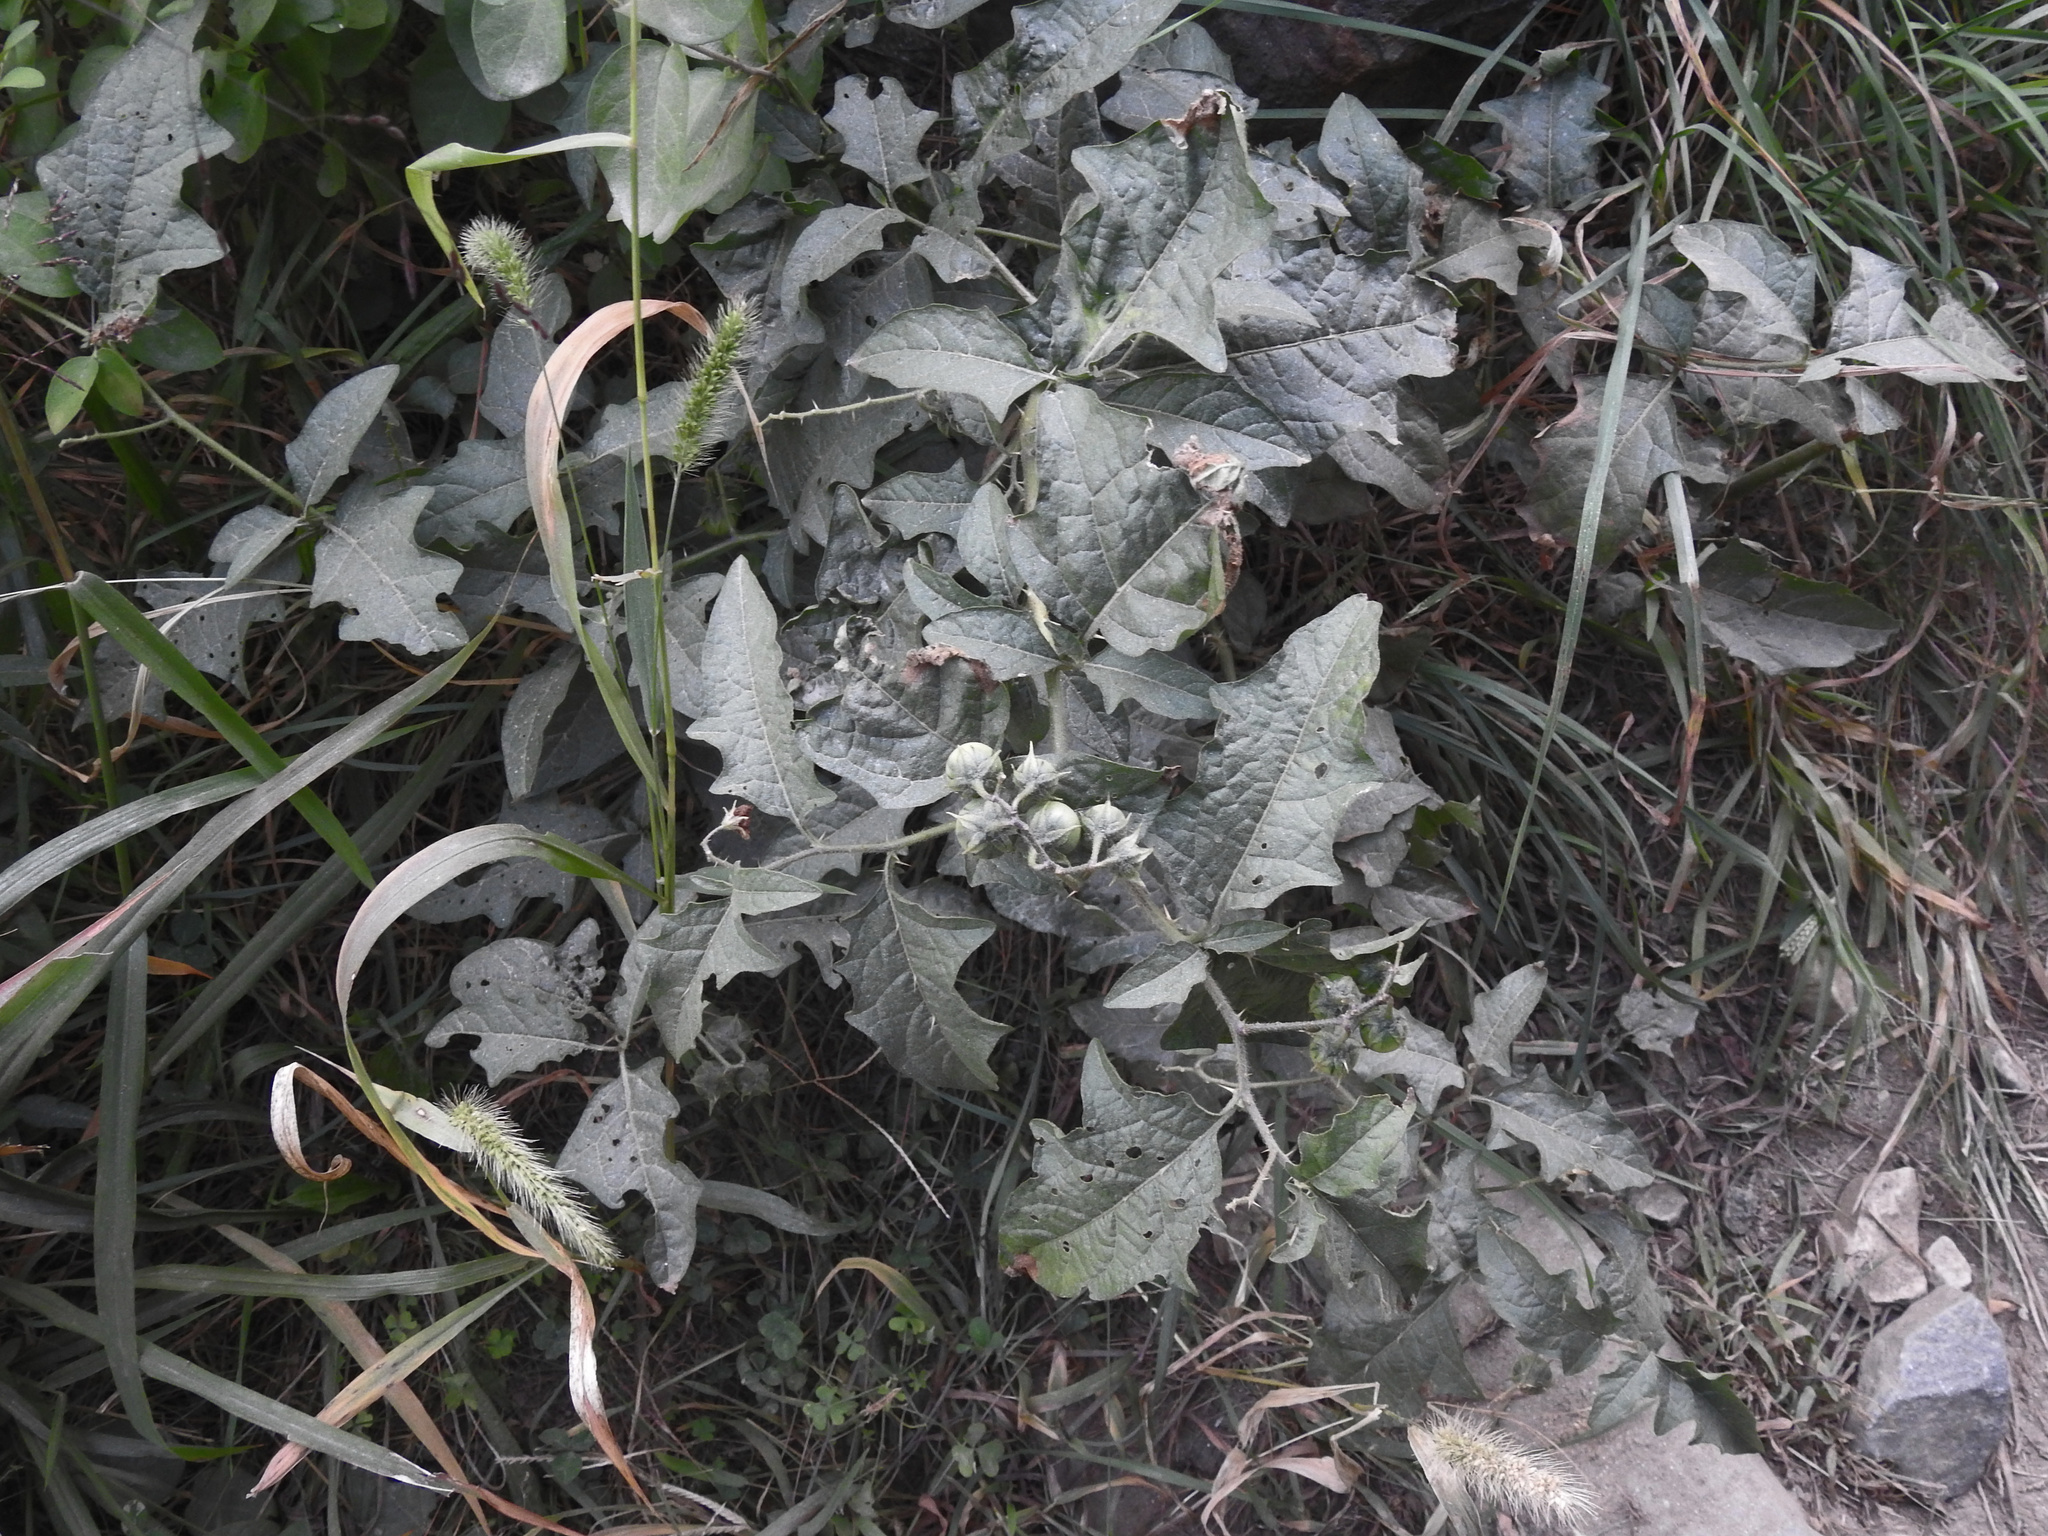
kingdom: Plantae
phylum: Tracheophyta
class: Magnoliopsida
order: Solanales
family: Solanaceae
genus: Solanum
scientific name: Solanum carolinense
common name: Horse-nettle
